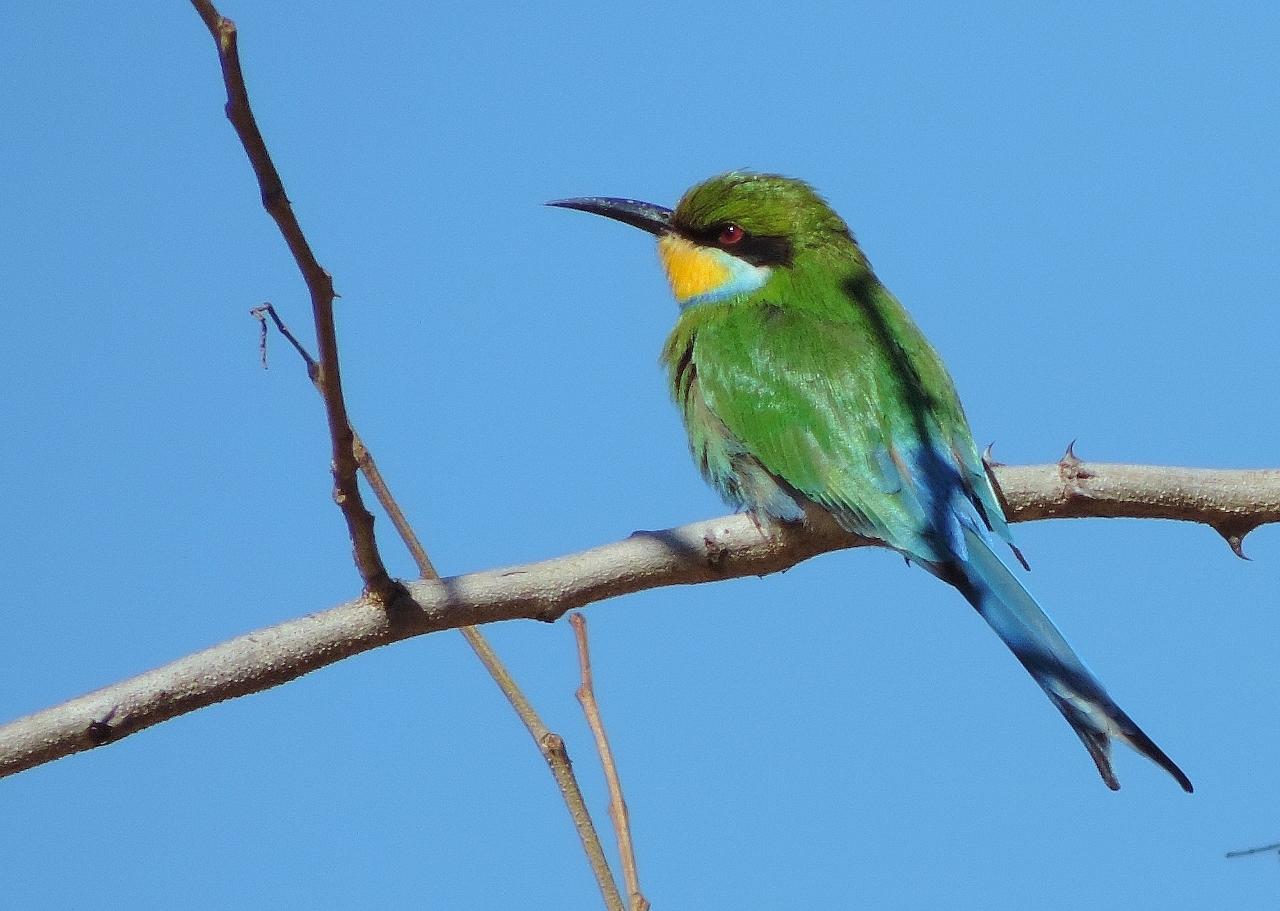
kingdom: Animalia
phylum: Chordata
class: Aves
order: Coraciiformes
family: Meropidae
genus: Merops
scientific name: Merops hirundineus
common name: Swallow-tailed bee-eater
